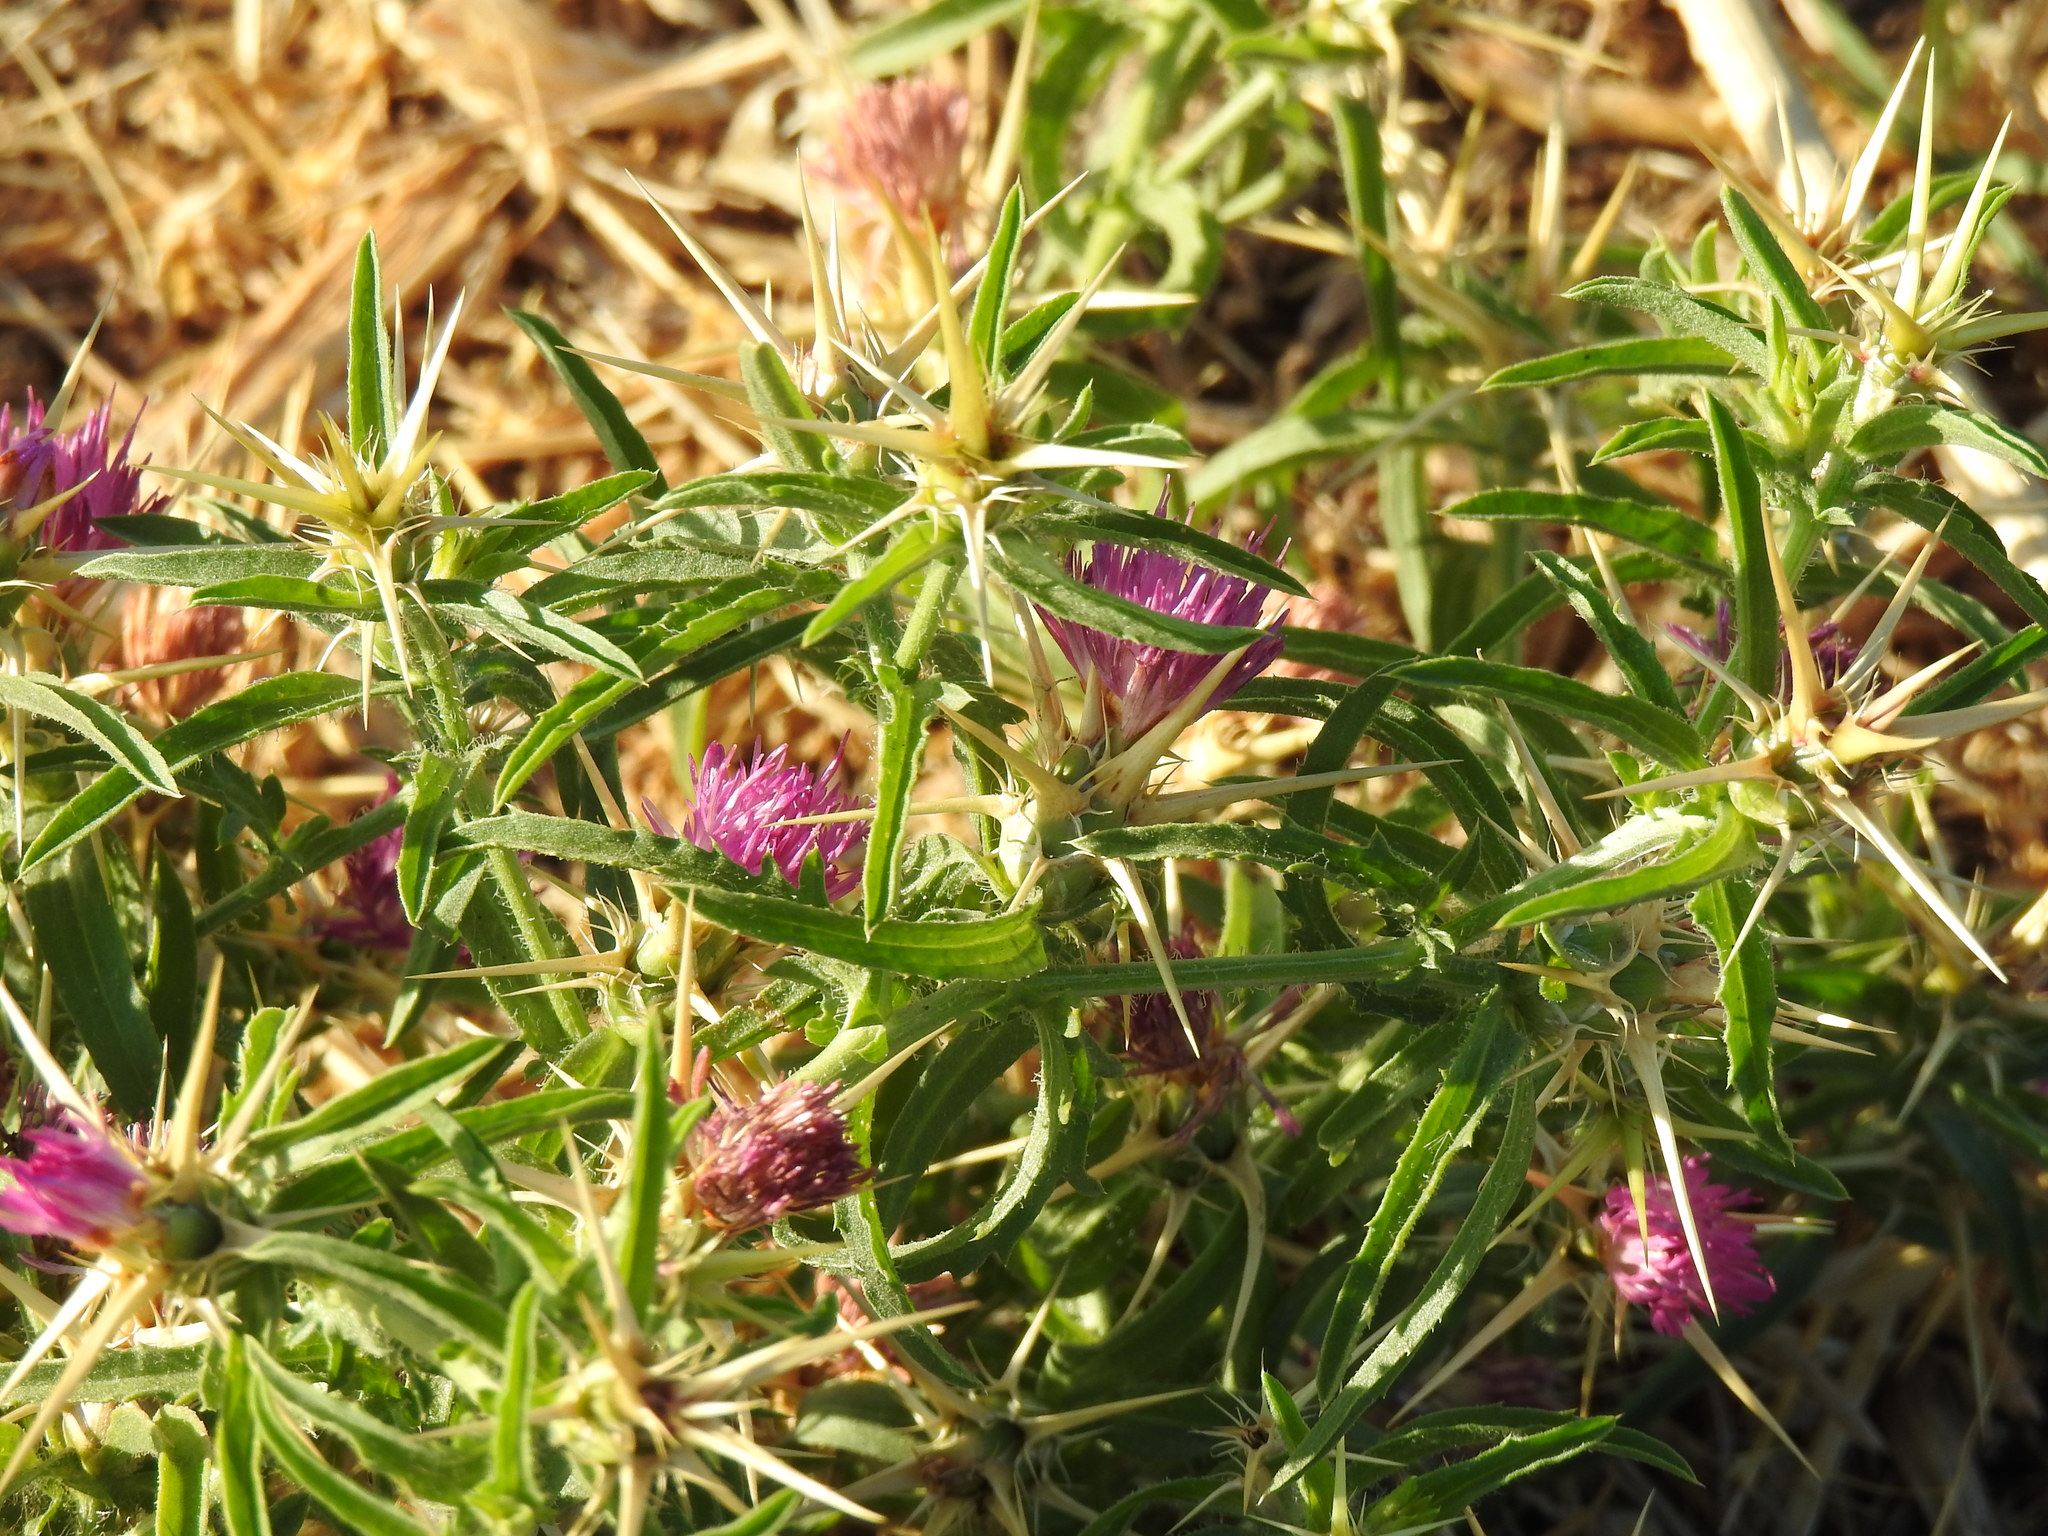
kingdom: Plantae
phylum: Tracheophyta
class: Magnoliopsida
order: Asterales
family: Asteraceae
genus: Centaurea
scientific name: Centaurea calcitrapa
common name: Red star-thistle
